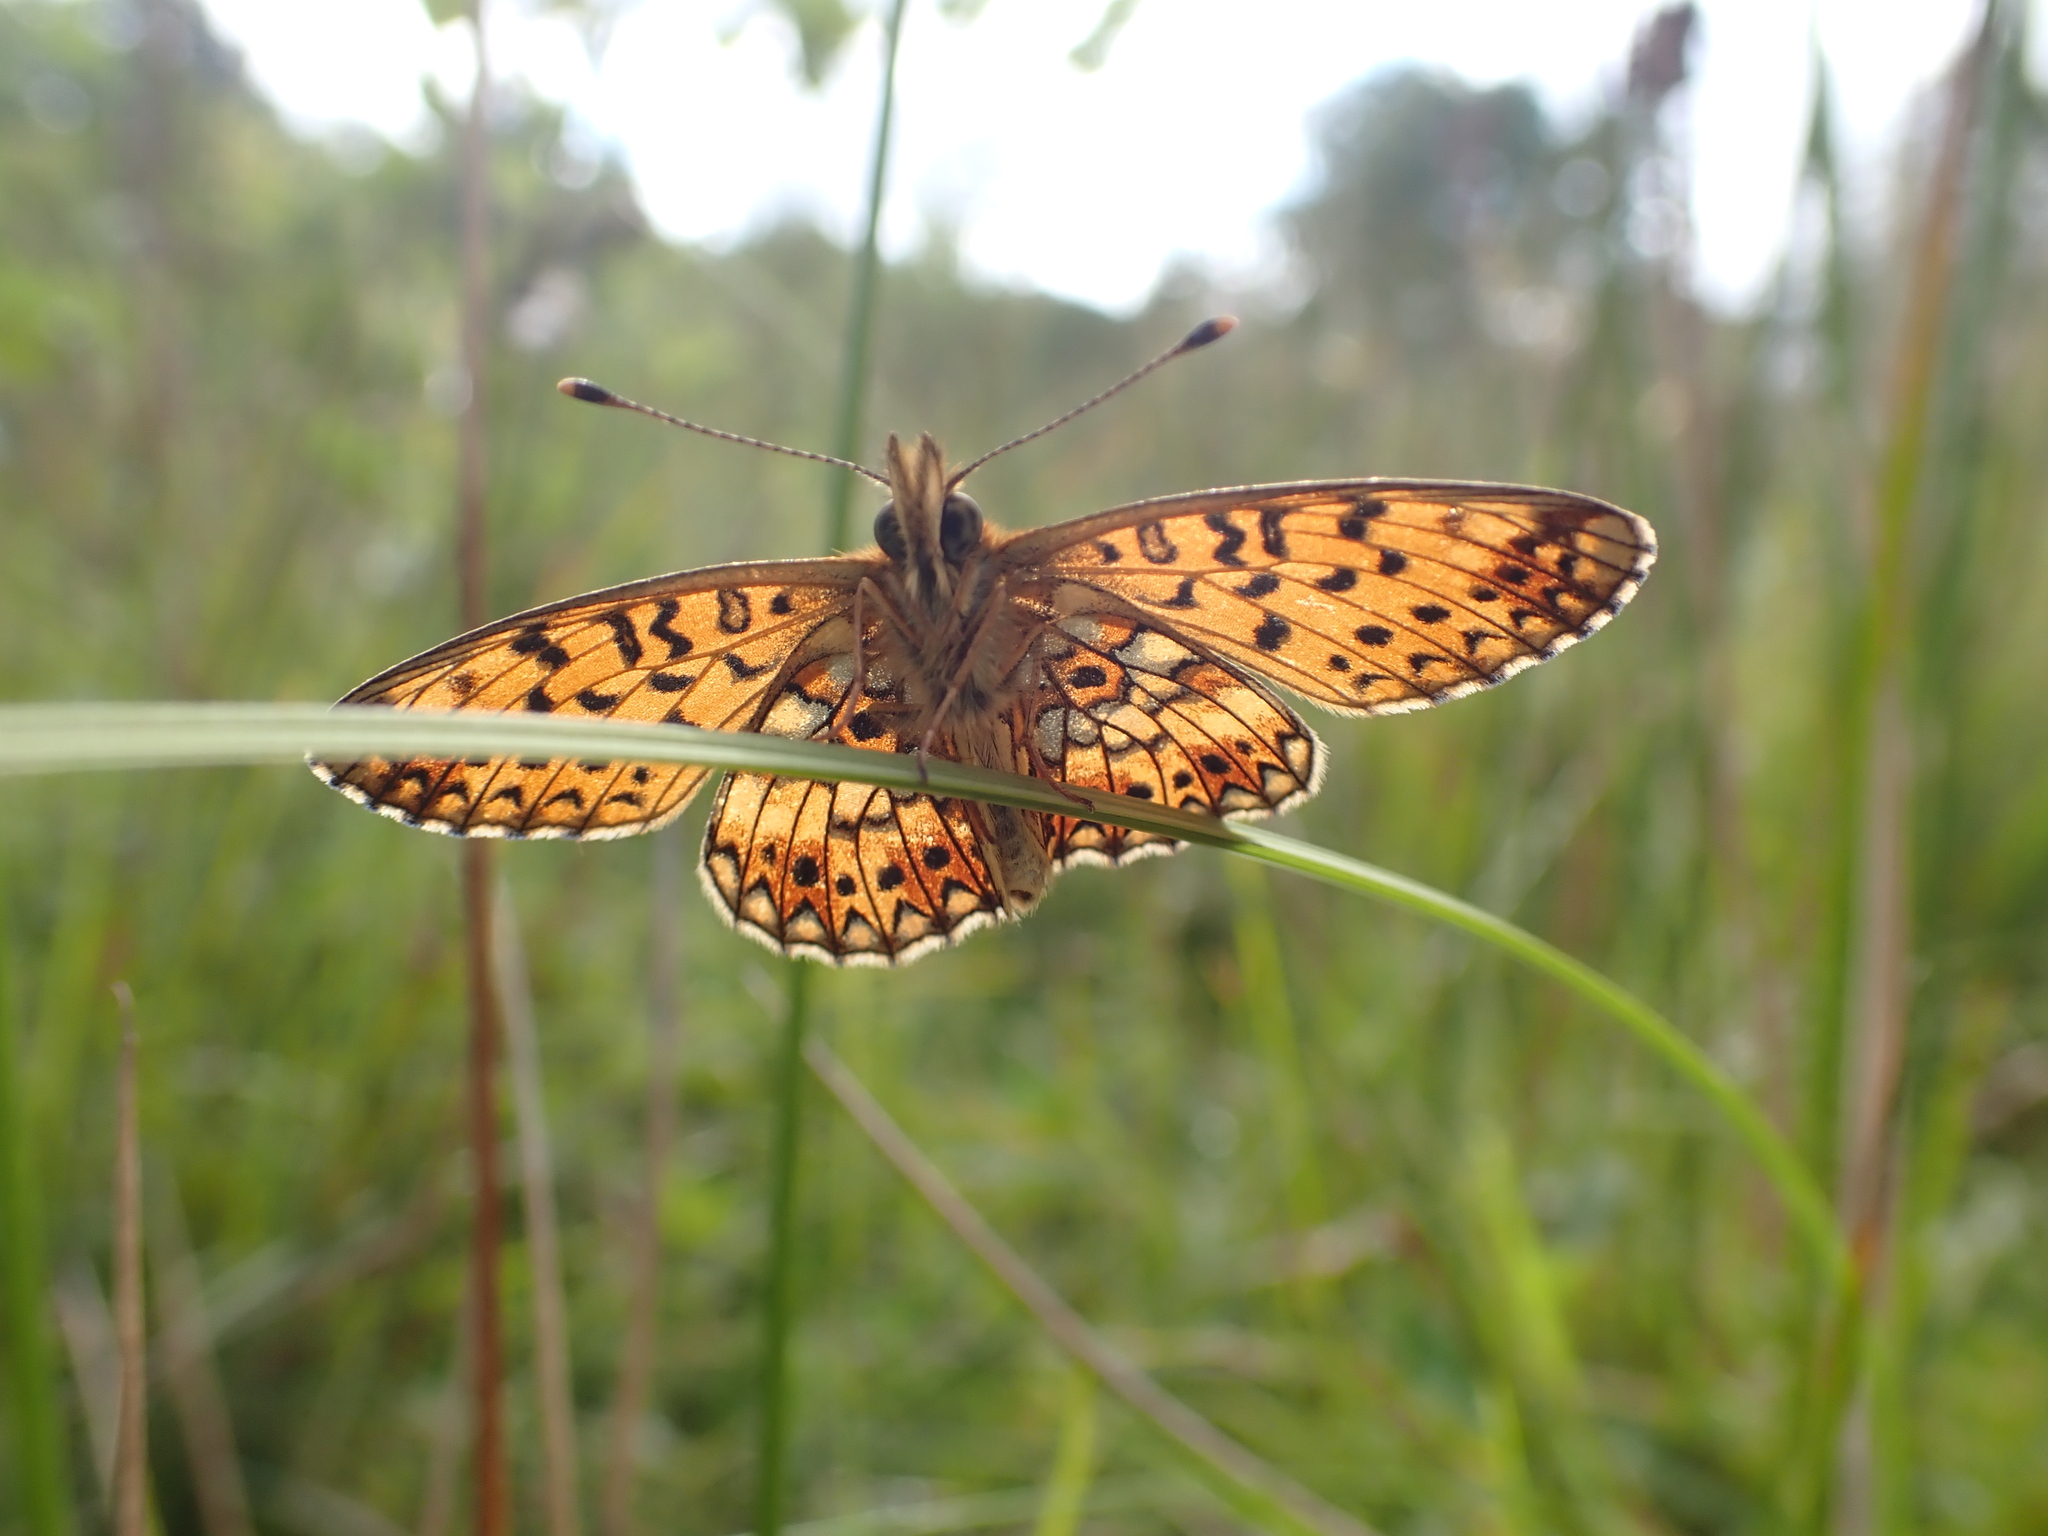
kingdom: Animalia
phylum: Arthropoda
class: Insecta
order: Lepidoptera
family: Nymphalidae
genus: Boloria
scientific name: Boloria selene
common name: Small pearl-bordered fritillary
